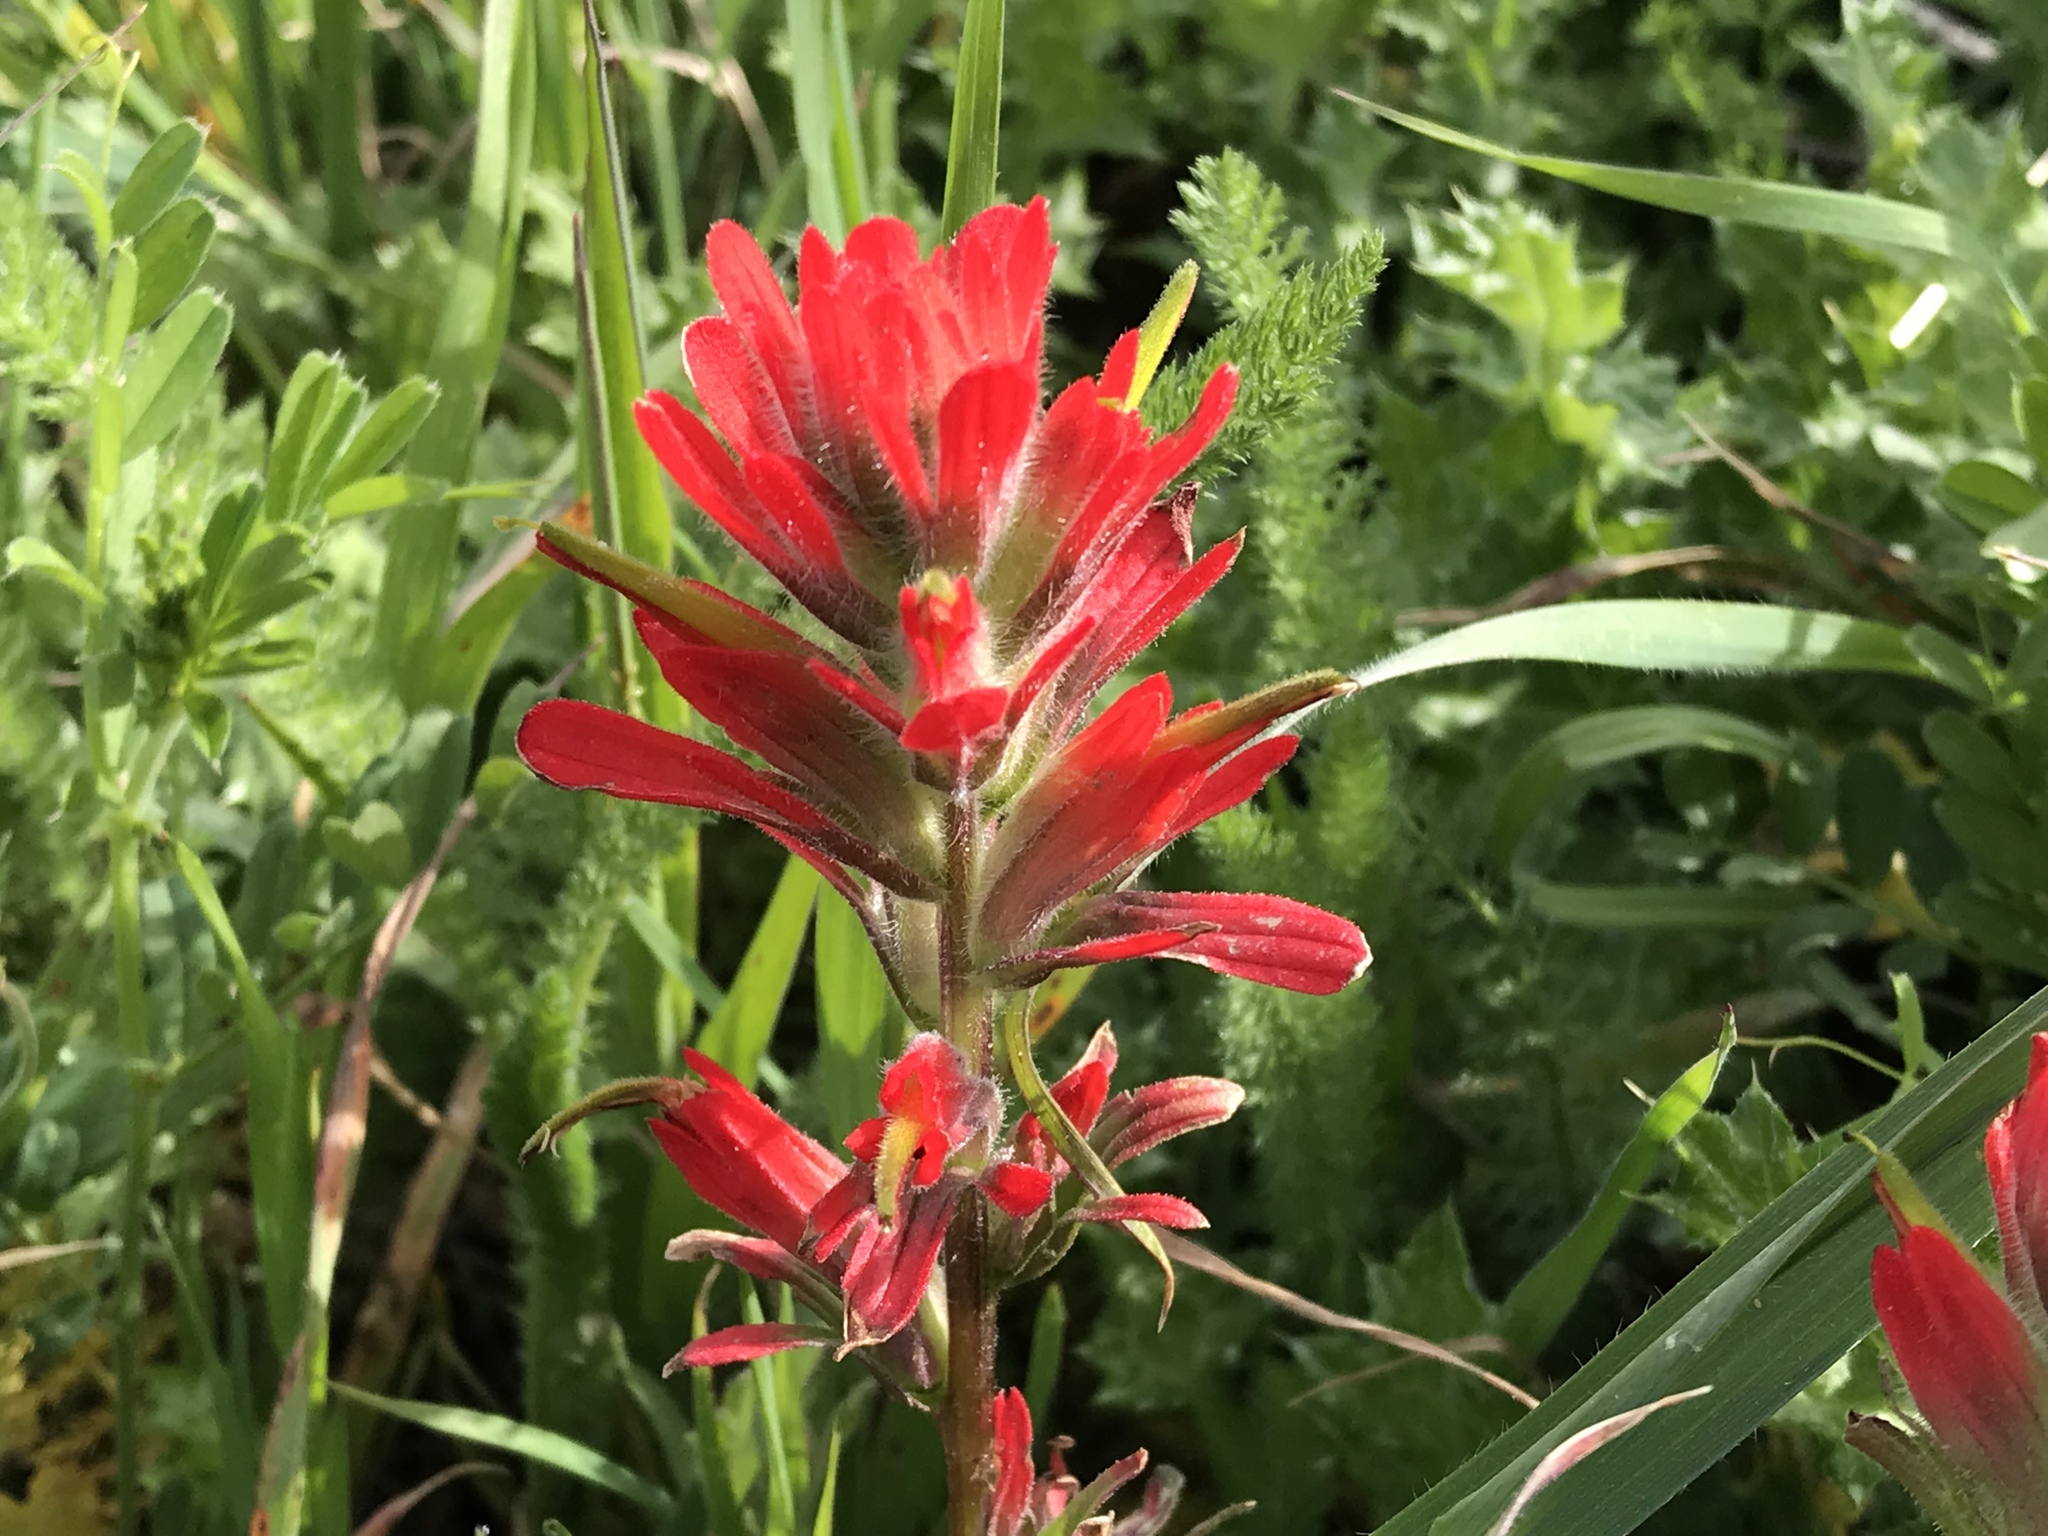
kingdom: Plantae
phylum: Tracheophyta
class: Magnoliopsida
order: Lamiales
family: Orobanchaceae
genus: Castilleja
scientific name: Castilleja affinis
